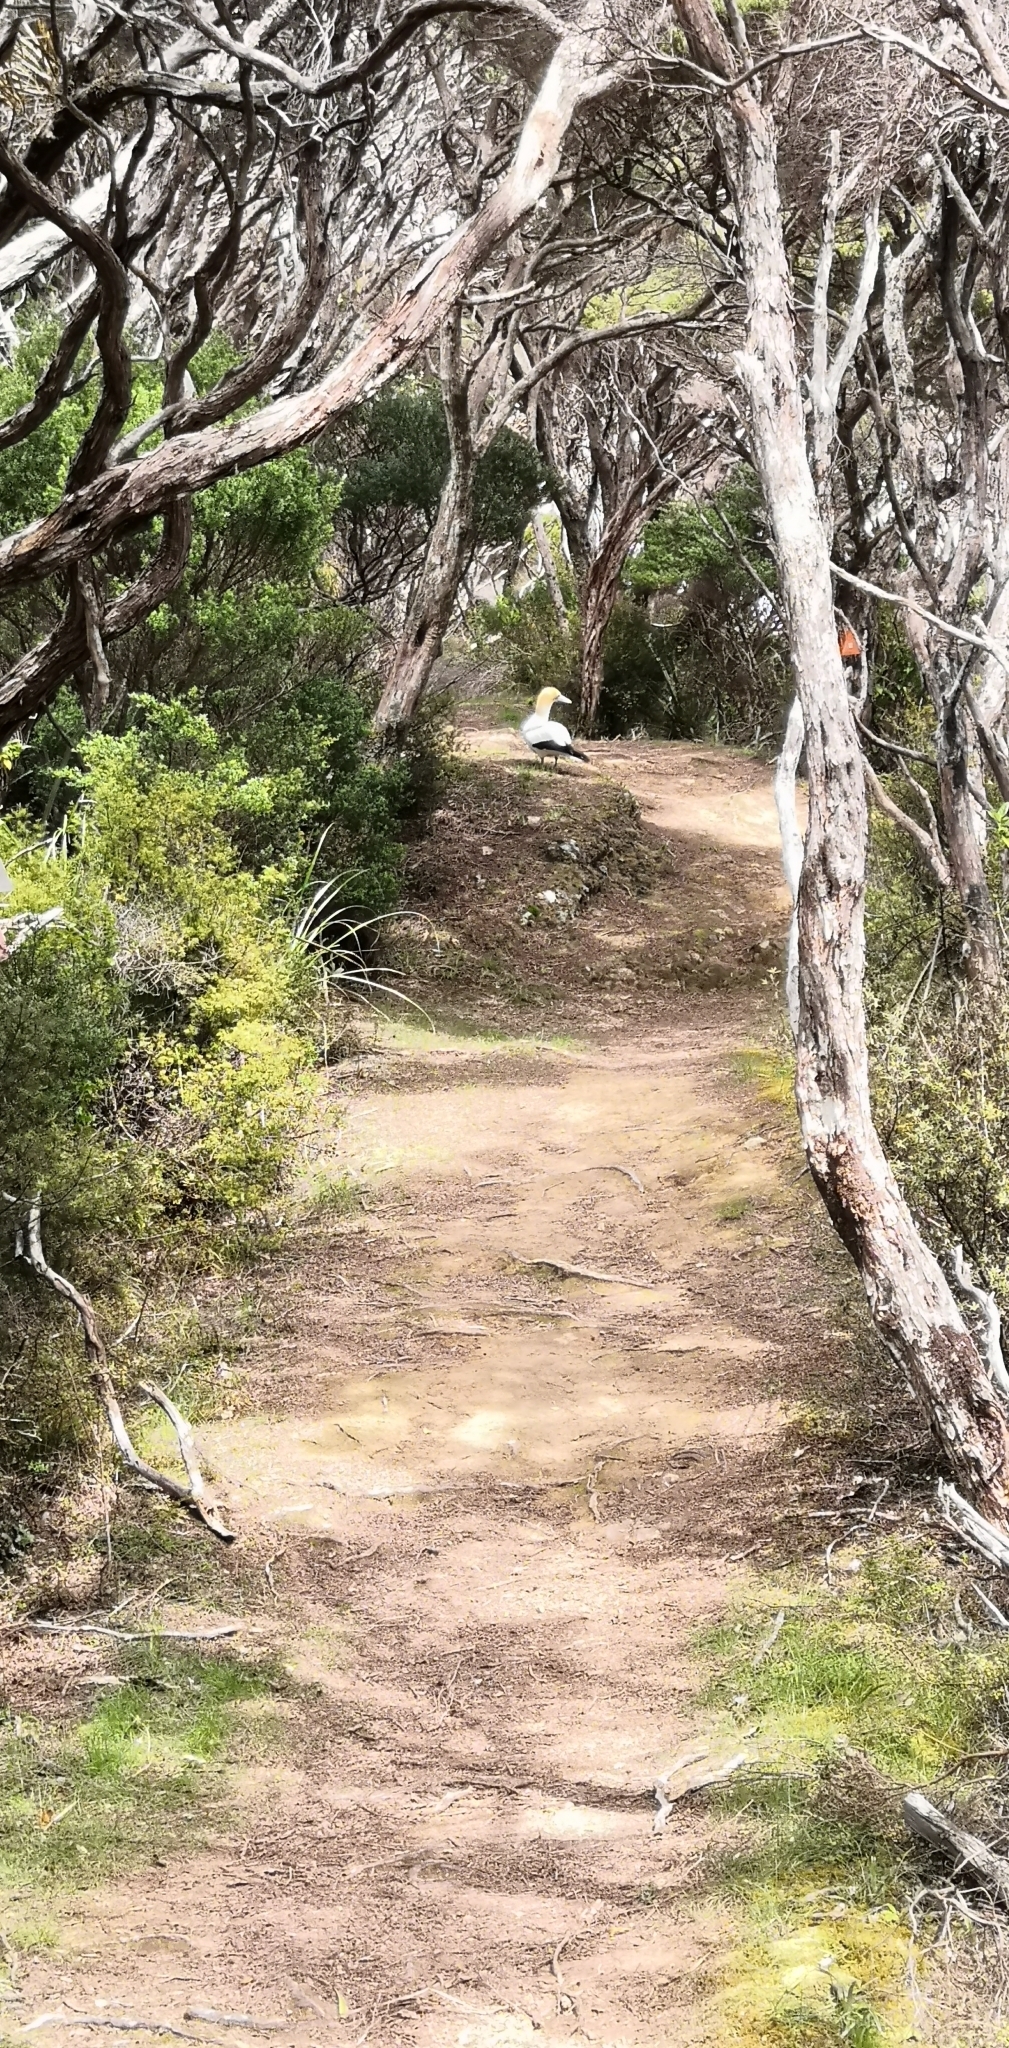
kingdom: Animalia
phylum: Chordata
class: Aves
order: Suliformes
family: Sulidae
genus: Morus
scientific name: Morus serrator
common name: Australasian gannet
